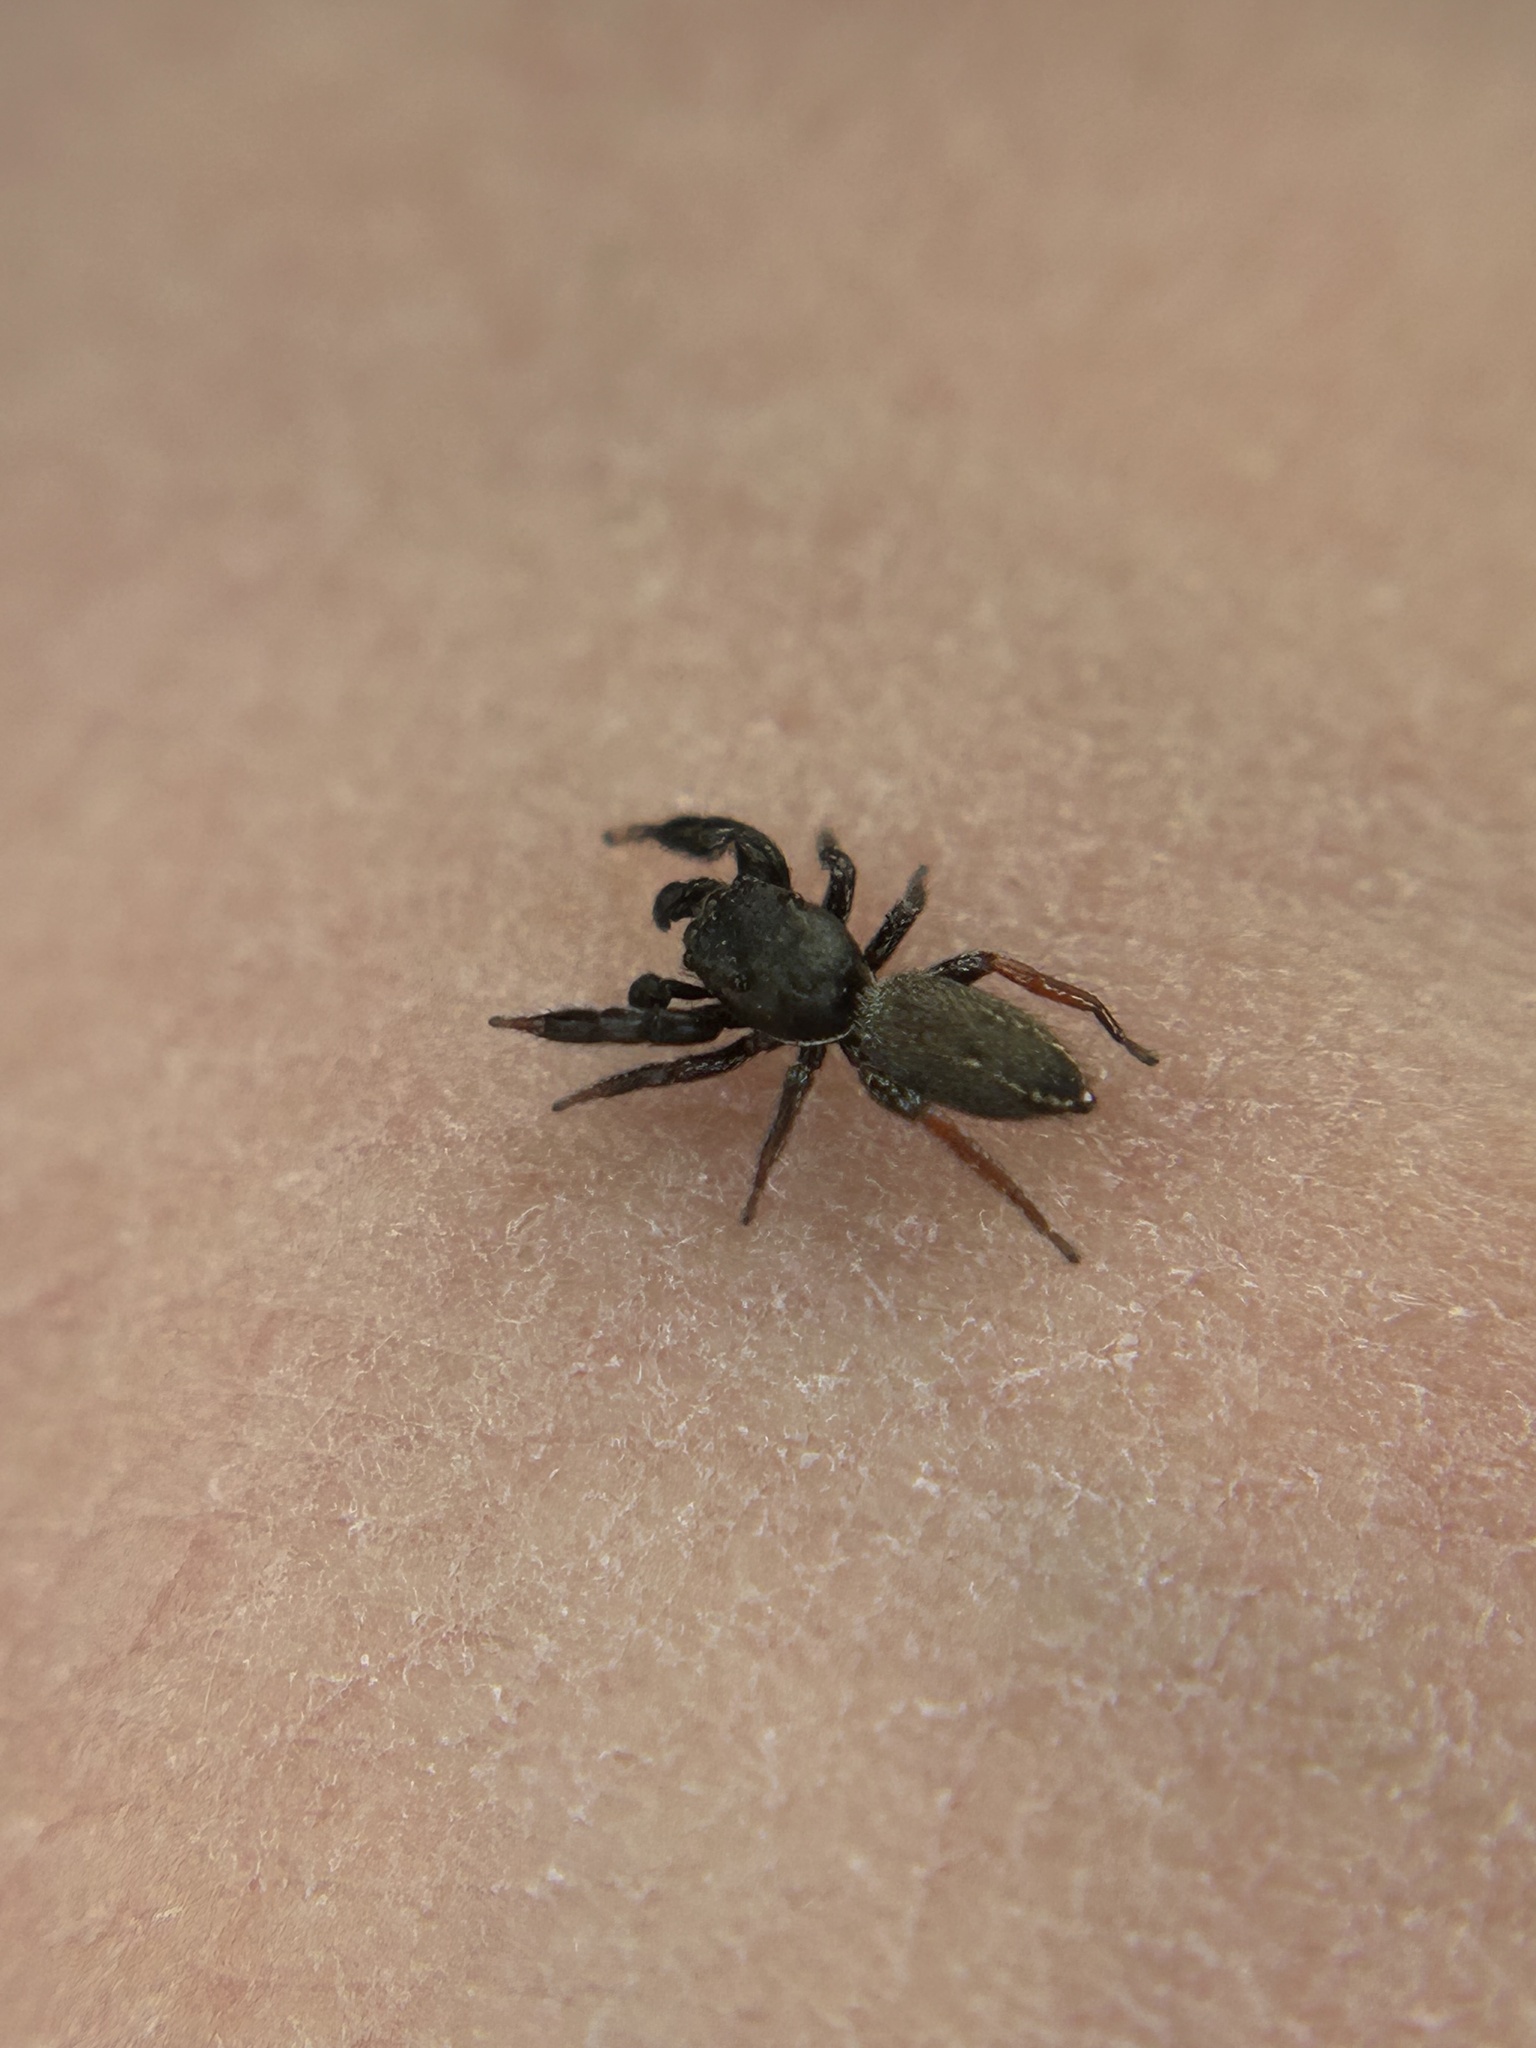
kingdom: Animalia
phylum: Arthropoda
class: Arachnida
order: Araneae
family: Salticidae
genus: Metacyrba
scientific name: Metacyrba taeniola
